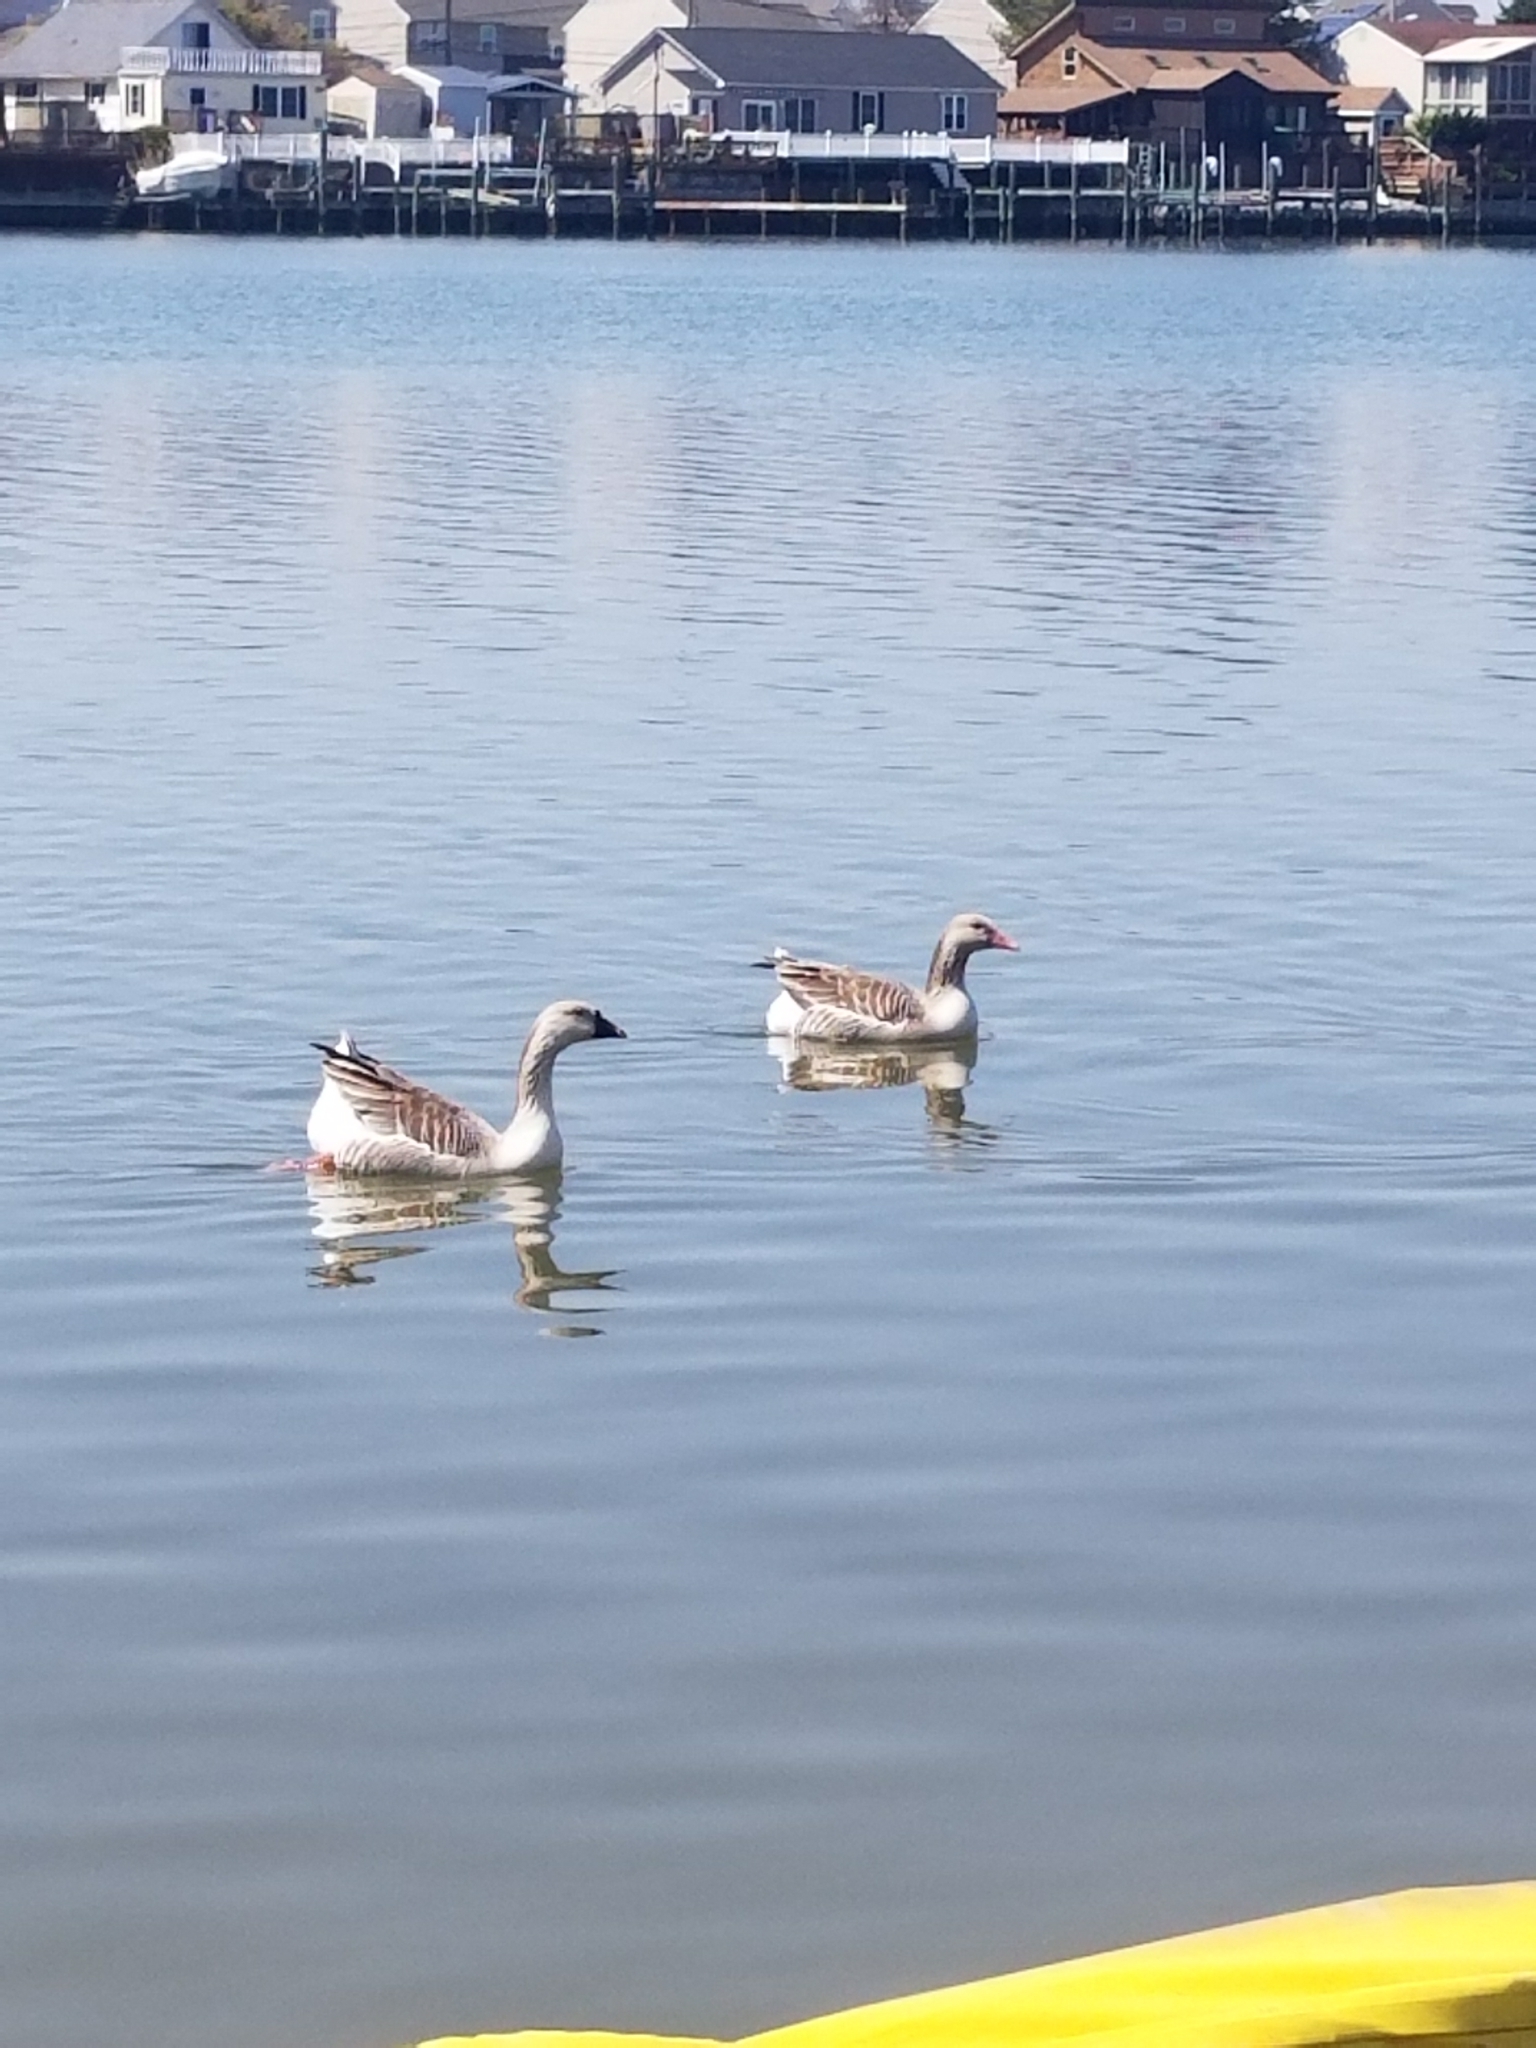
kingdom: Animalia
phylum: Chordata
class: Aves
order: Anseriformes
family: Anatidae
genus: Anser
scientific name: Anser anser
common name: Greylag goose
